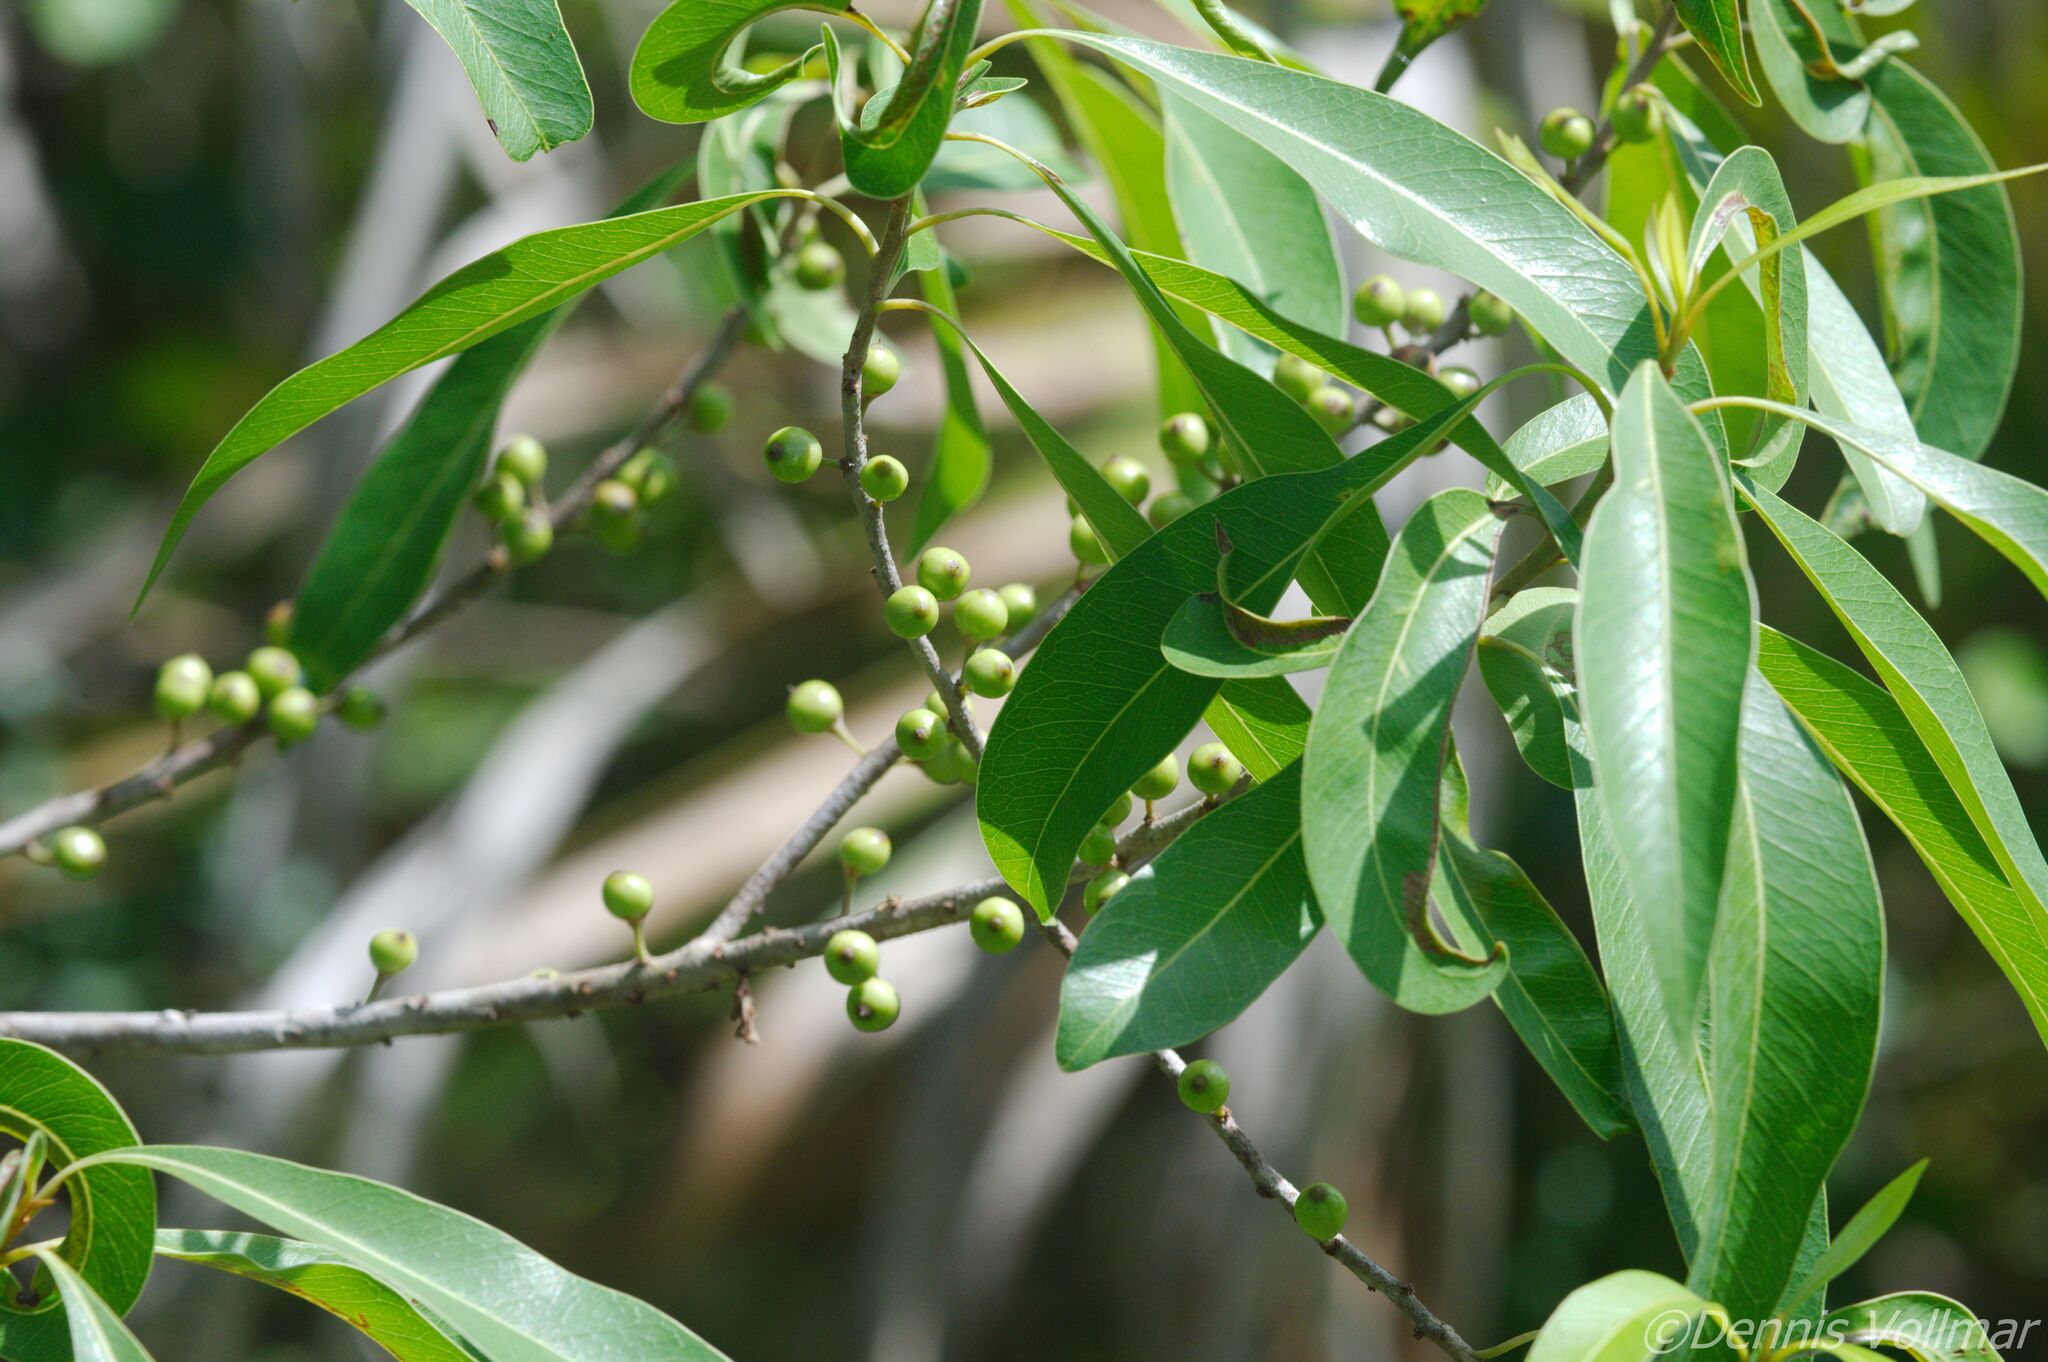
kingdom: Plantae
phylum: Tracheophyta
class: Magnoliopsida
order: Ericales
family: Sapotaceae
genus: Sideroxylon
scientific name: Sideroxylon salicifolium
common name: White bully
